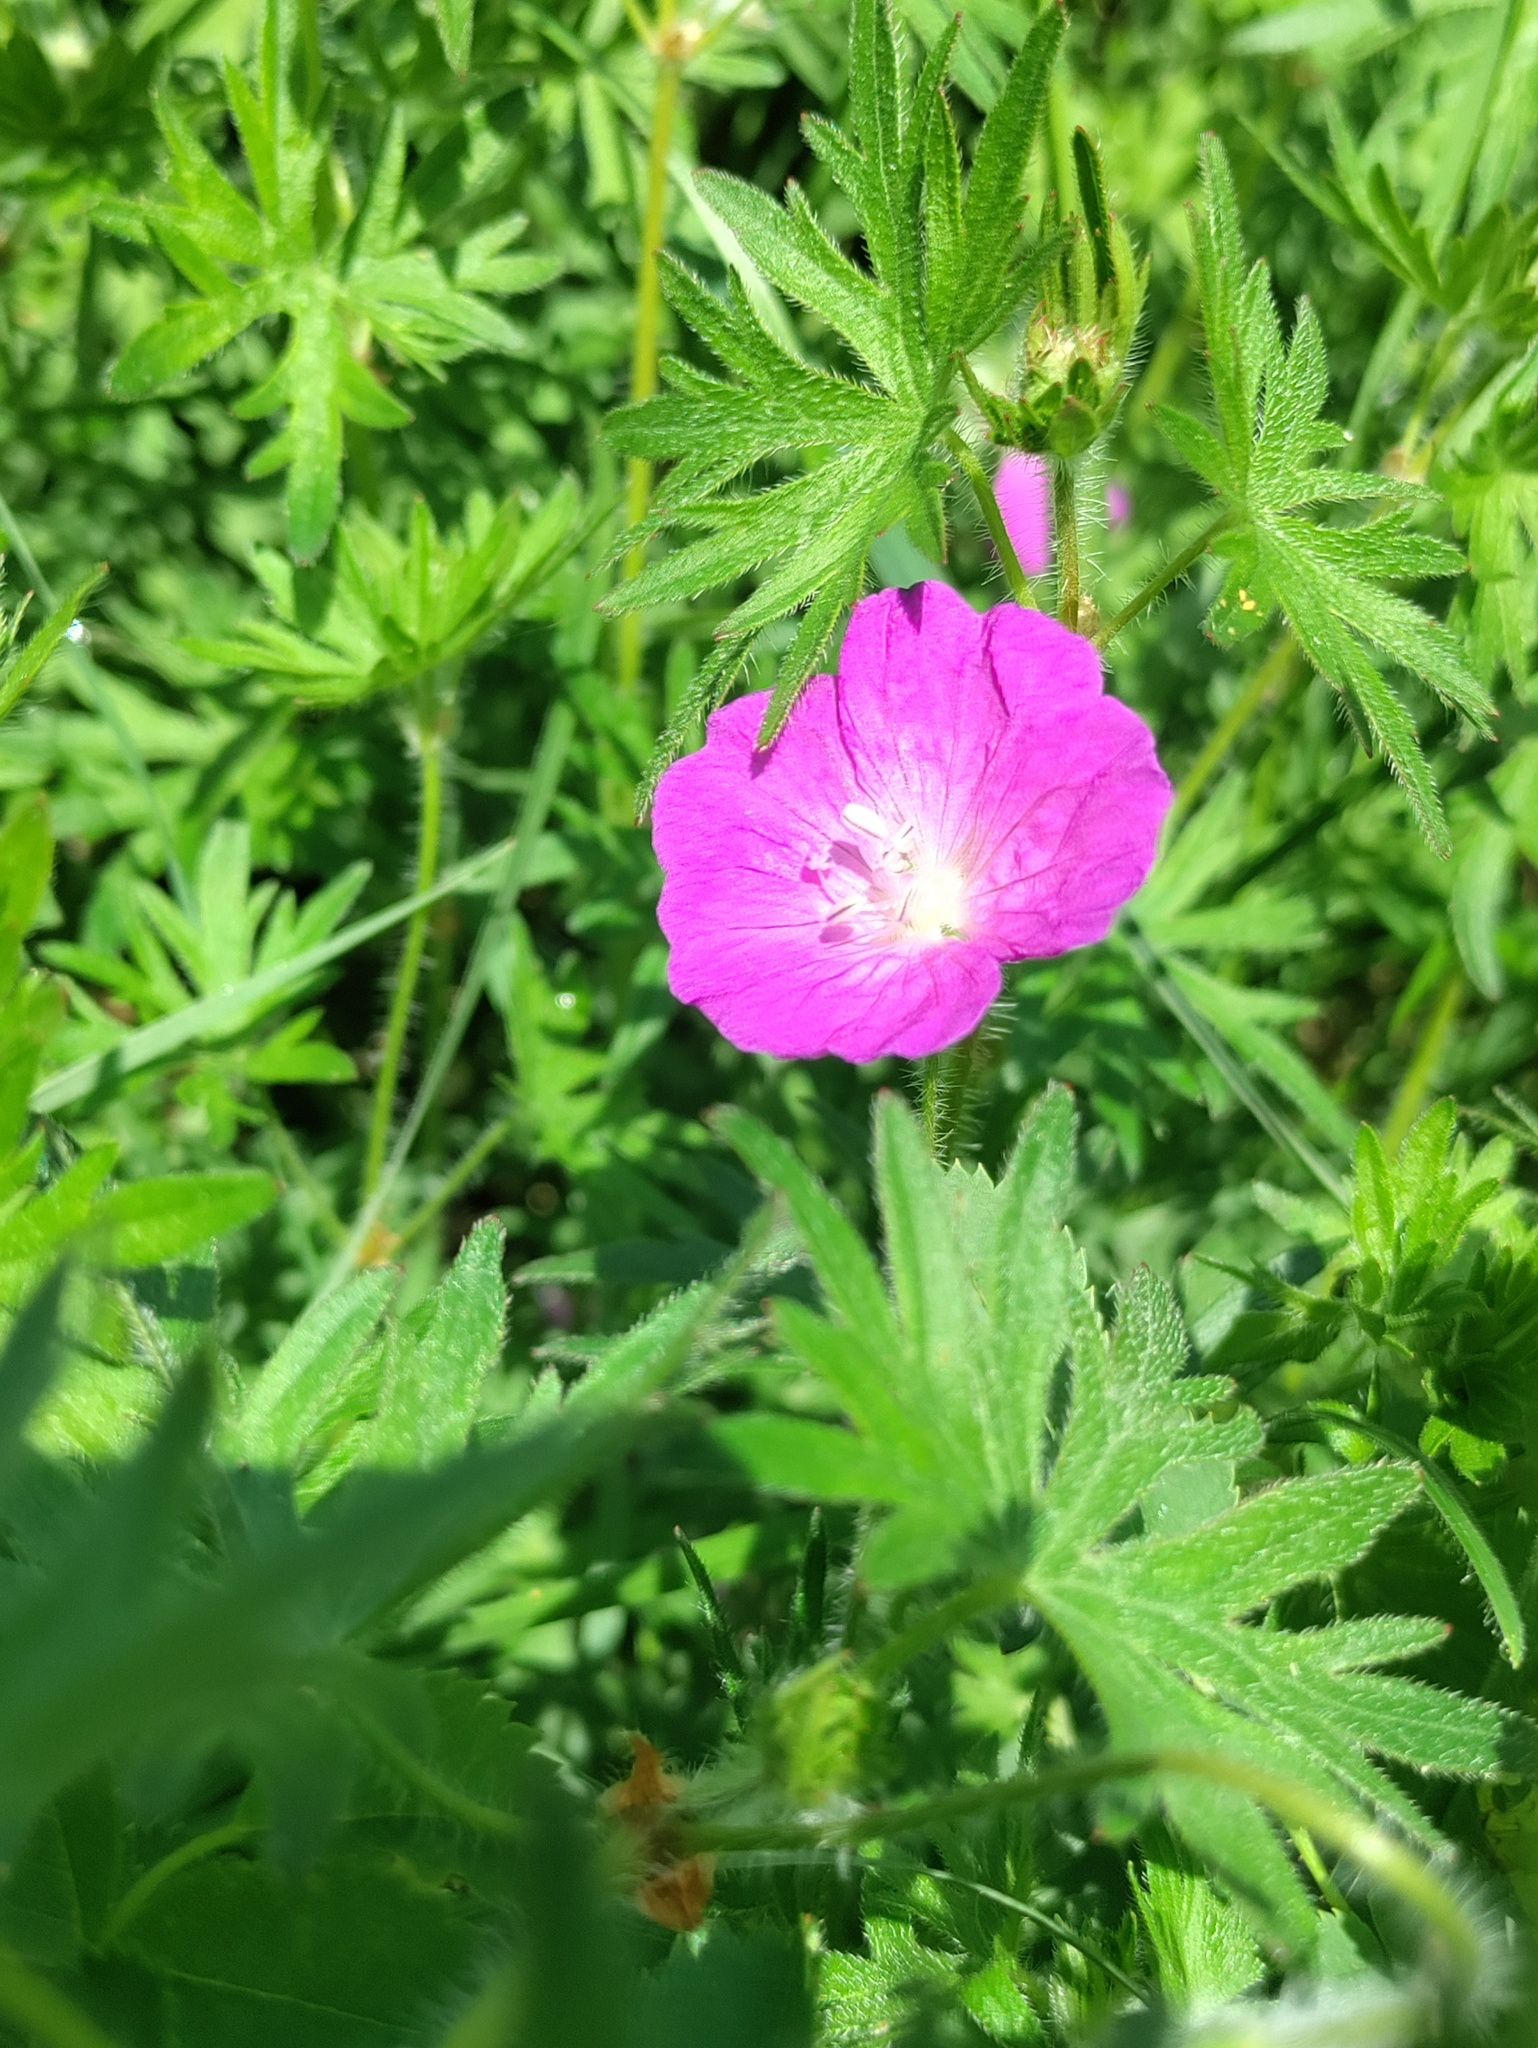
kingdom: Plantae
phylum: Tracheophyta
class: Magnoliopsida
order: Geraniales
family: Geraniaceae
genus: Geranium
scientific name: Geranium sanguineum
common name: Bloody crane's-bill
